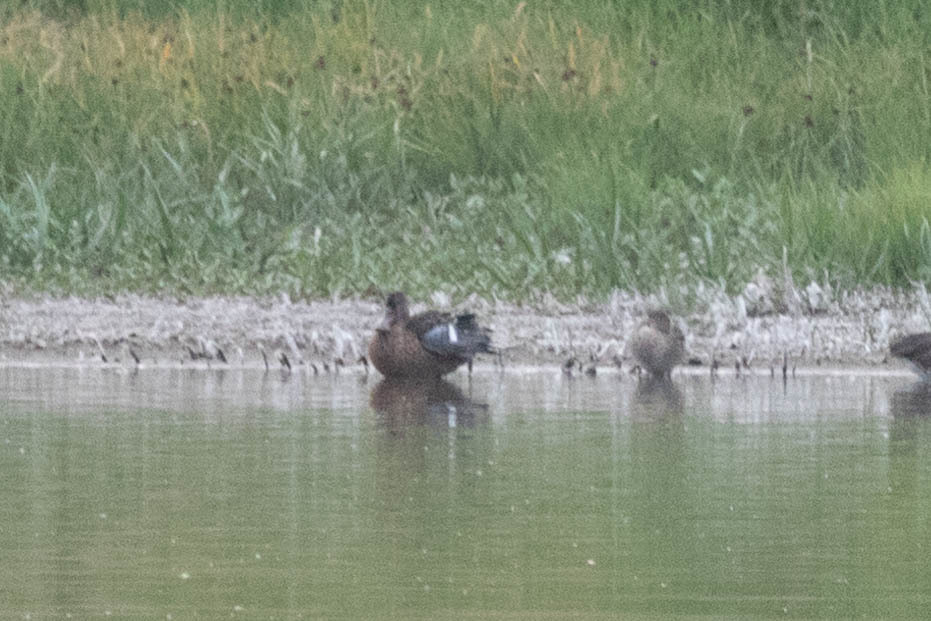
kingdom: Animalia
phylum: Chordata
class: Aves
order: Anseriformes
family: Anatidae
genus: Spatula
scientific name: Spatula clypeata
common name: Northern shoveler
